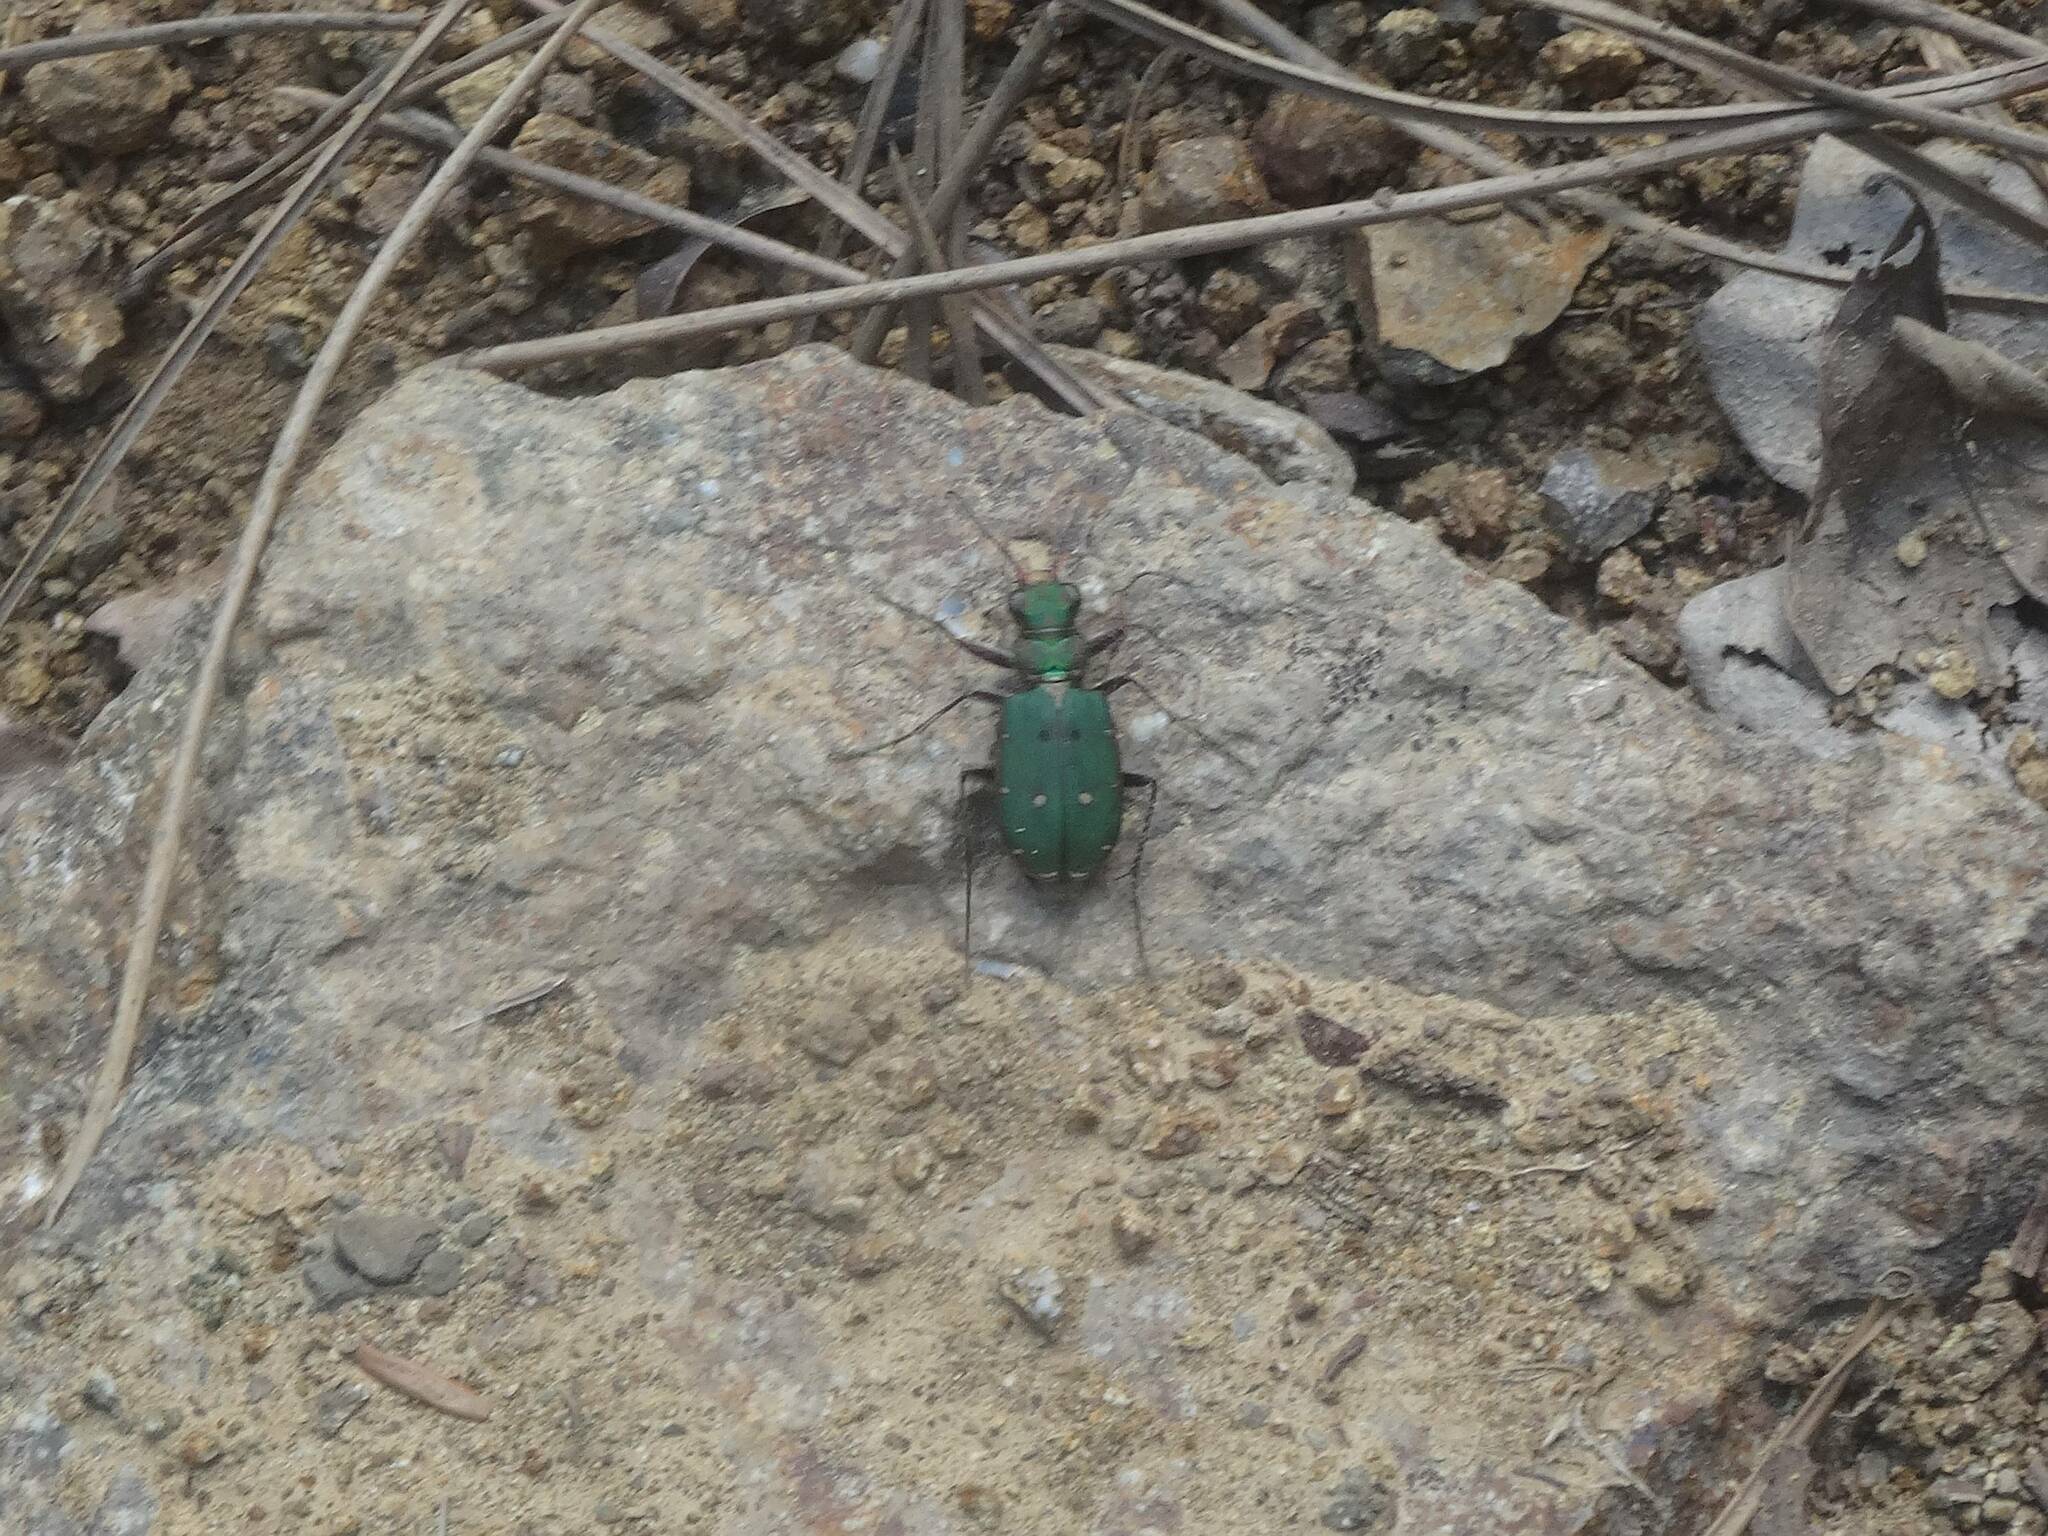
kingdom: Animalia
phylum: Arthropoda
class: Insecta
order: Coleoptera
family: Carabidae
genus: Cicindela
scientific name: Cicindela campestris
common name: Common tiger beetle
